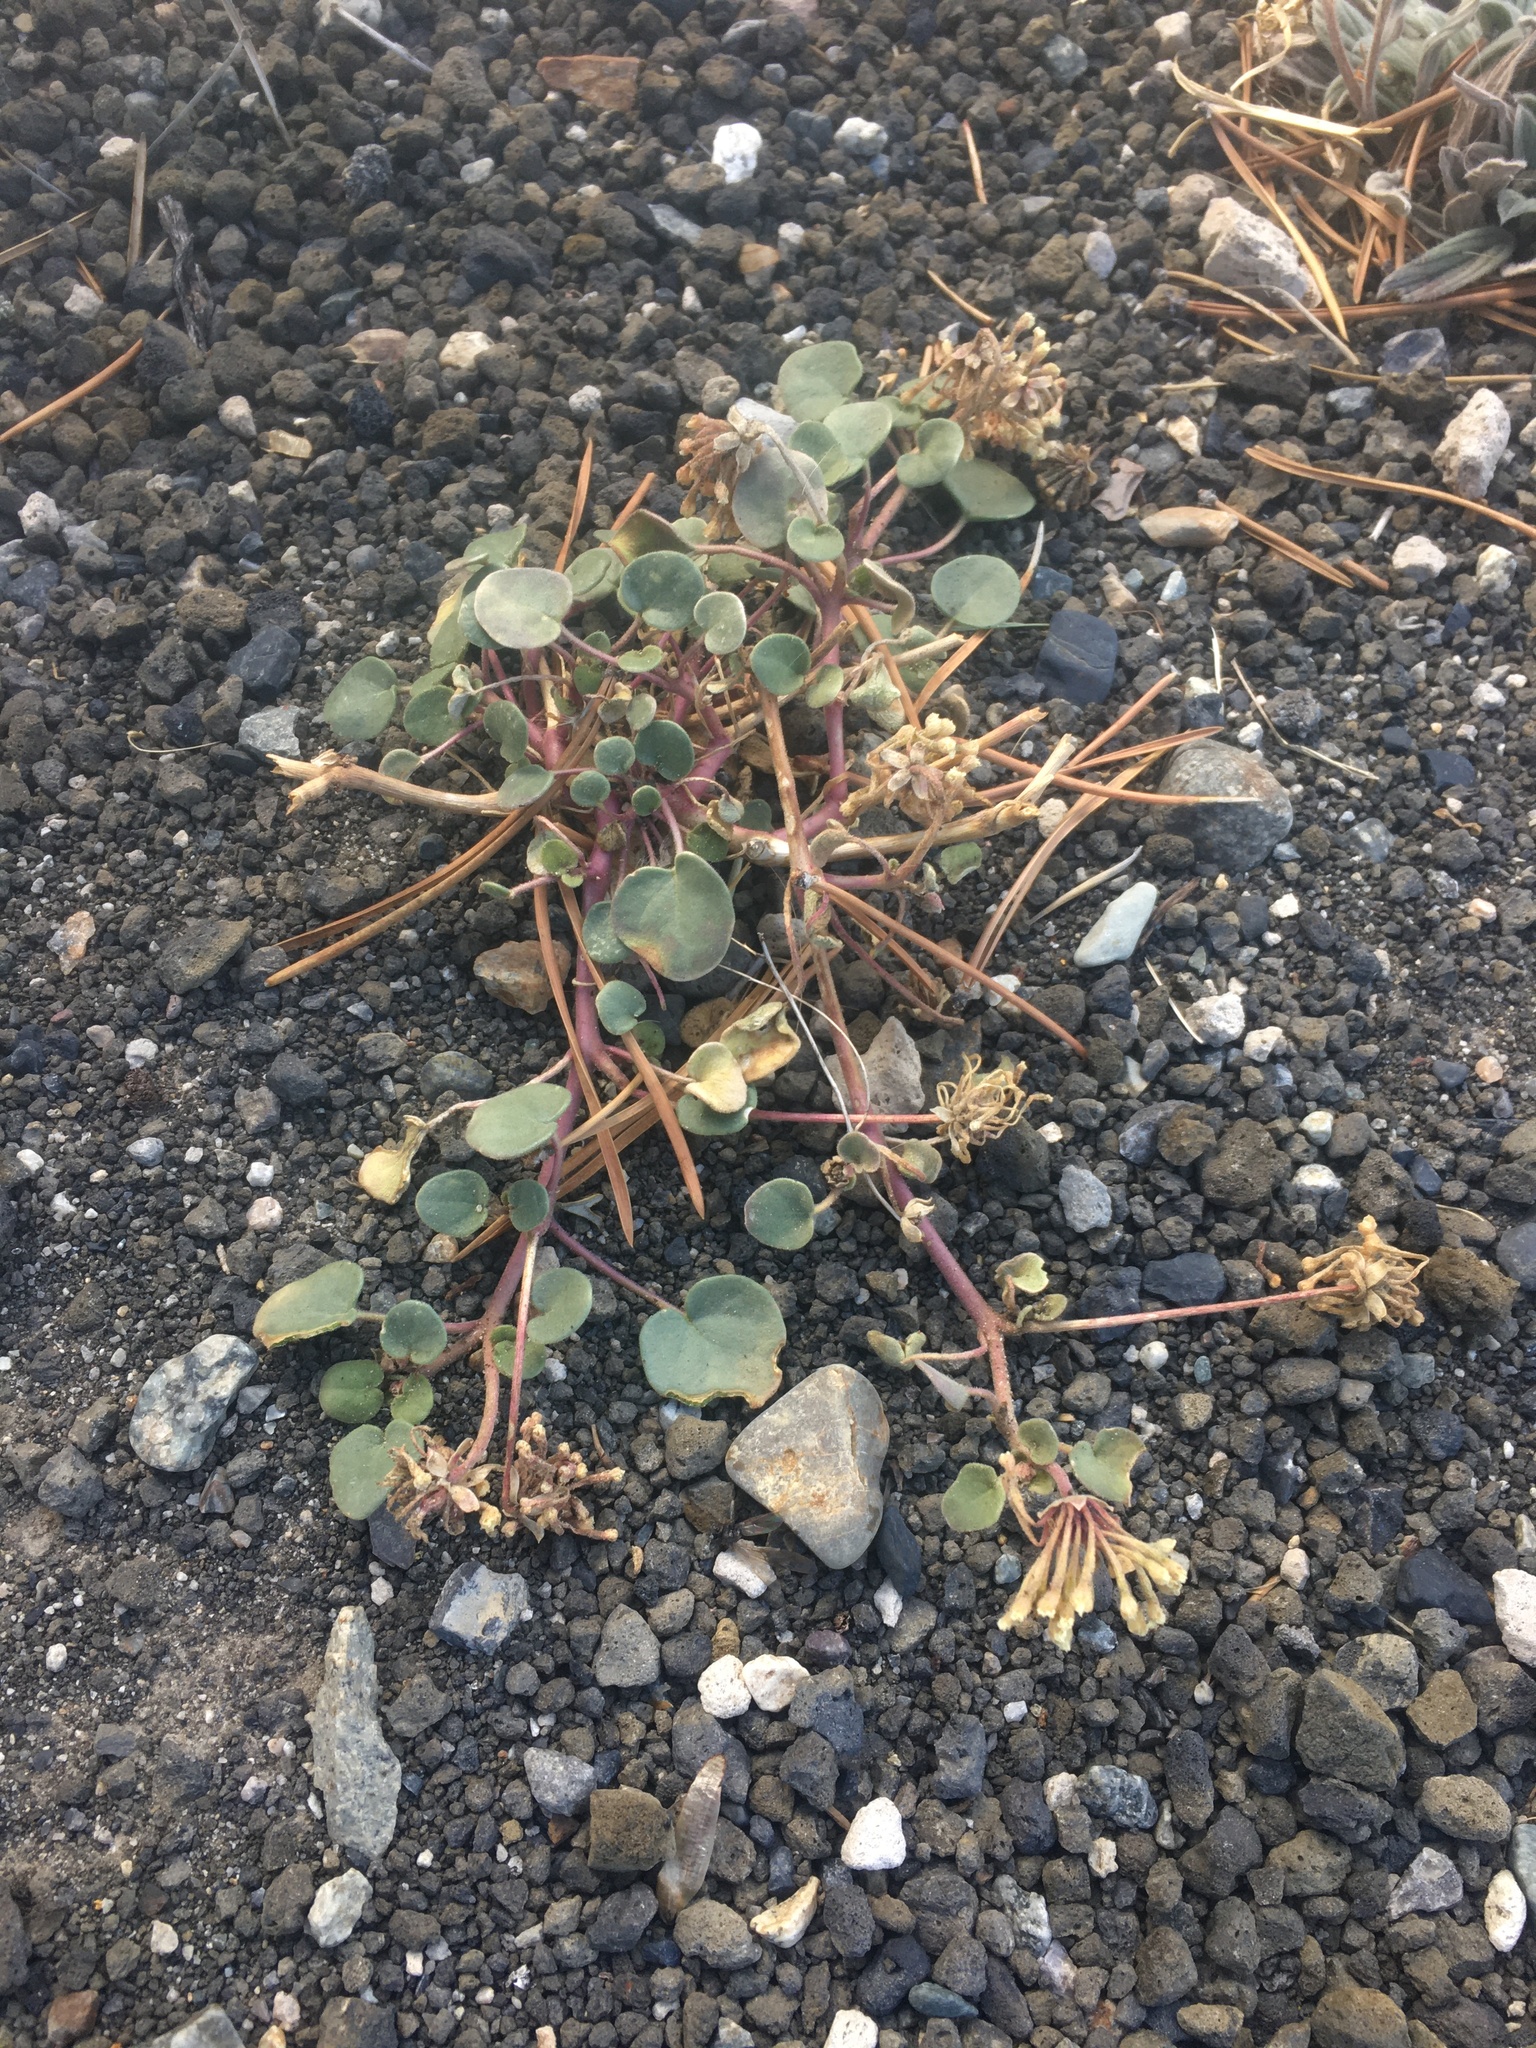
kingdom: Plantae
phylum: Tracheophyta
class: Magnoliopsida
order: Caryophyllales
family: Nyctaginaceae
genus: Abronia
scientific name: Abronia turbinata
